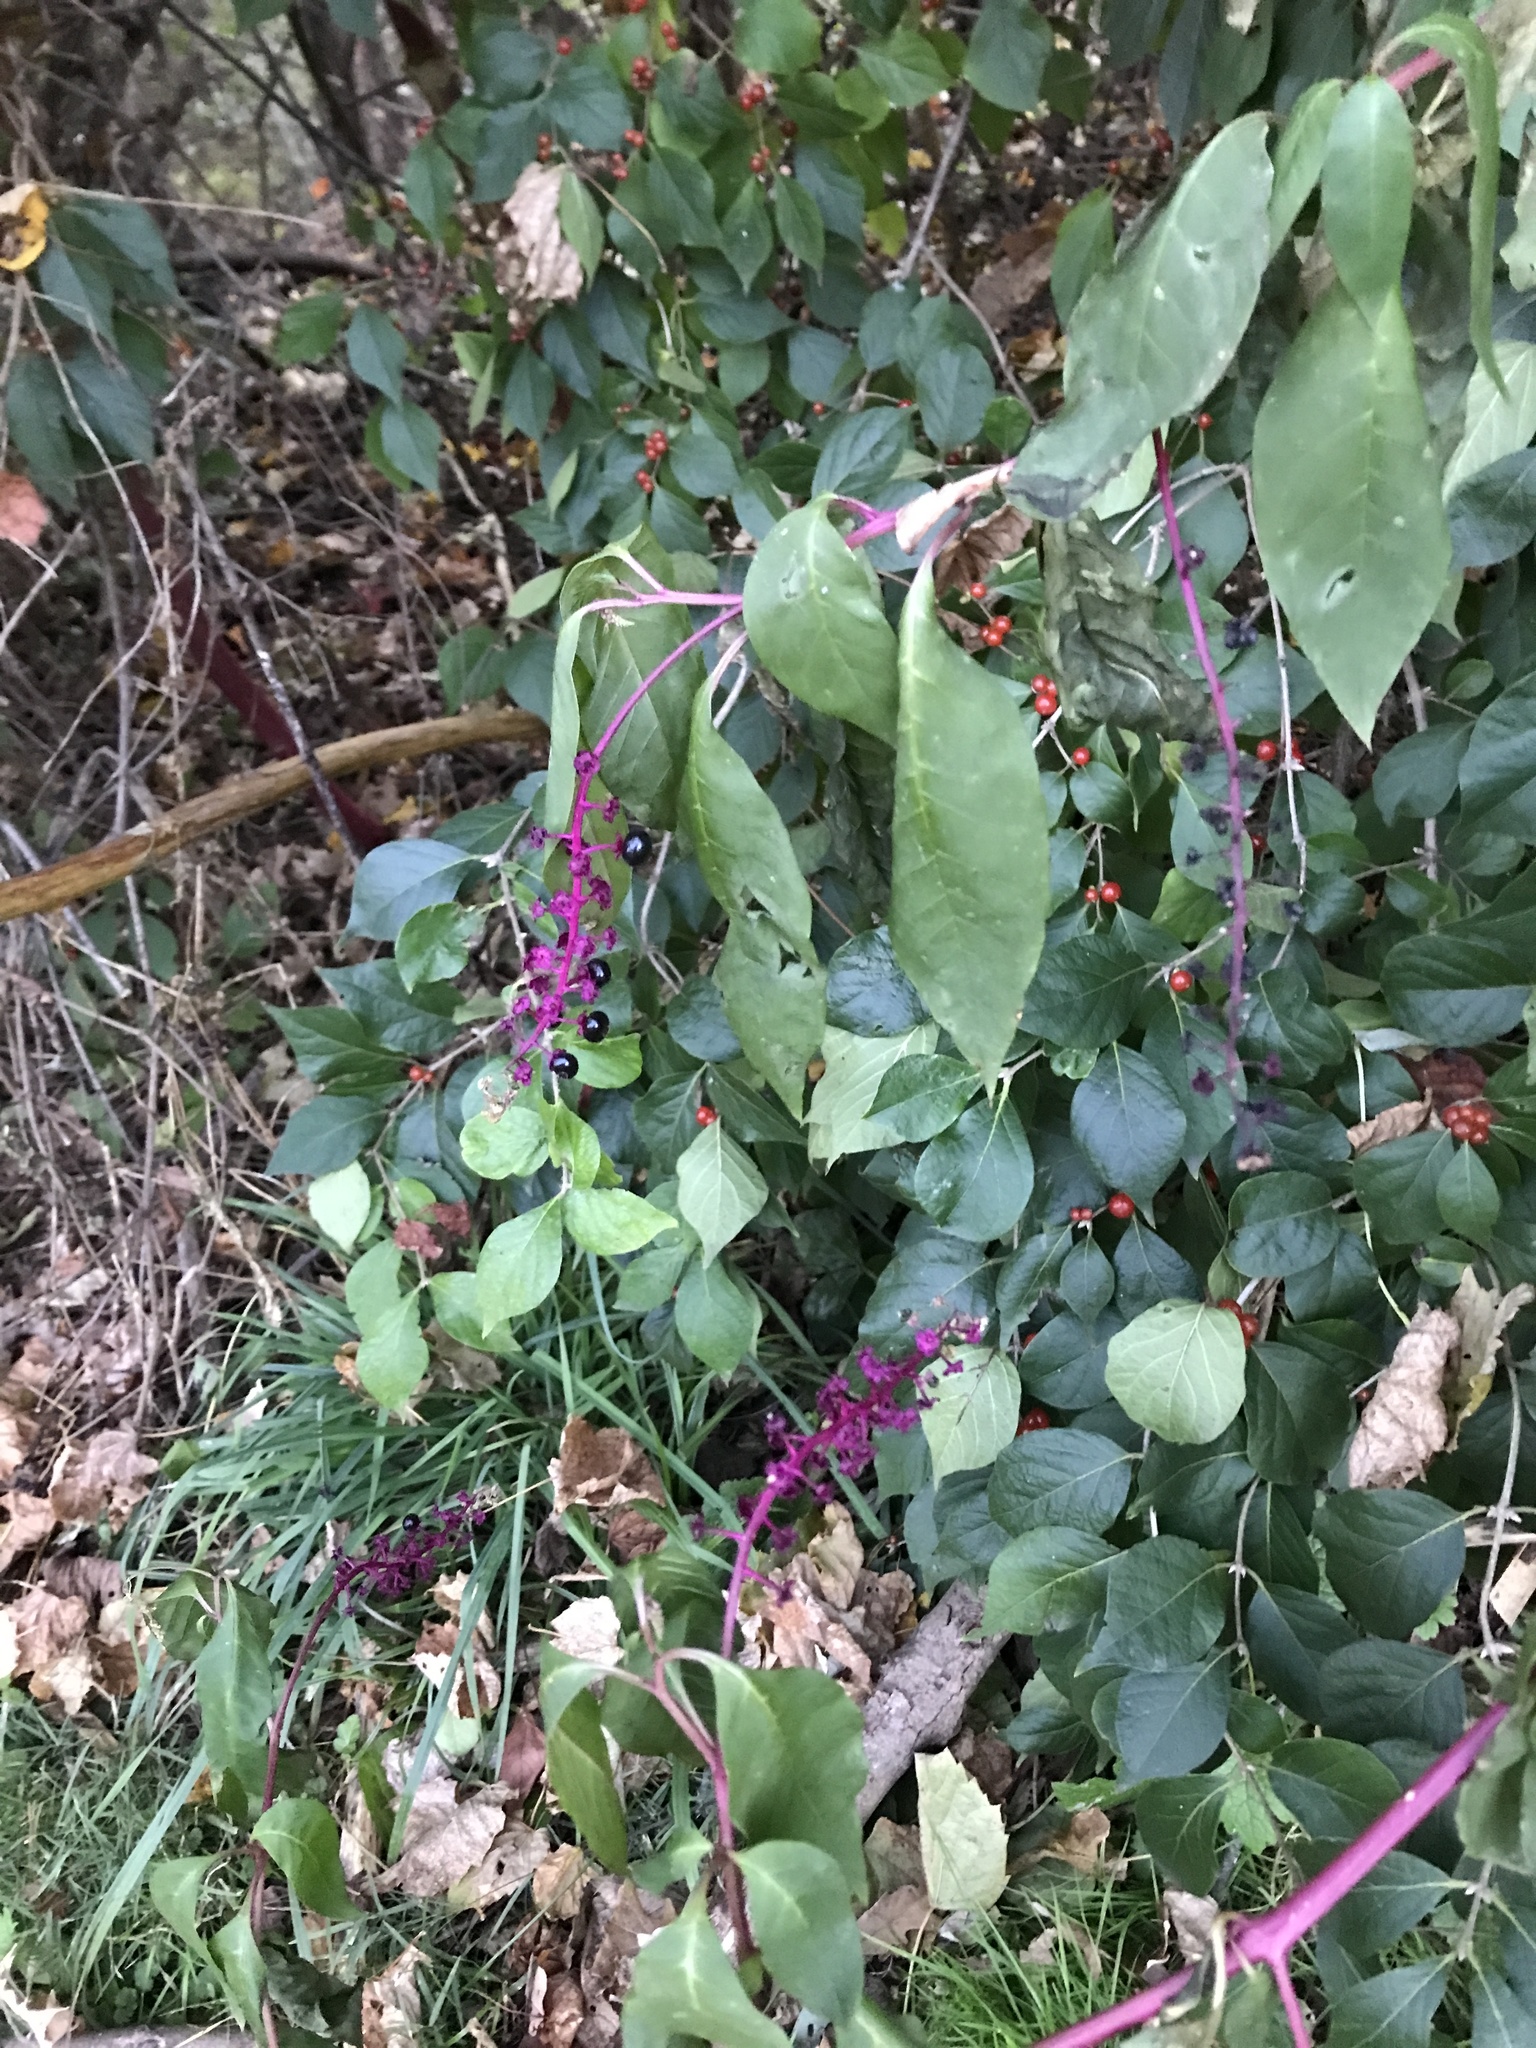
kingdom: Plantae
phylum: Tracheophyta
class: Magnoliopsida
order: Caryophyllales
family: Phytolaccaceae
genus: Phytolacca
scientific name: Phytolacca americana
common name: American pokeweed
